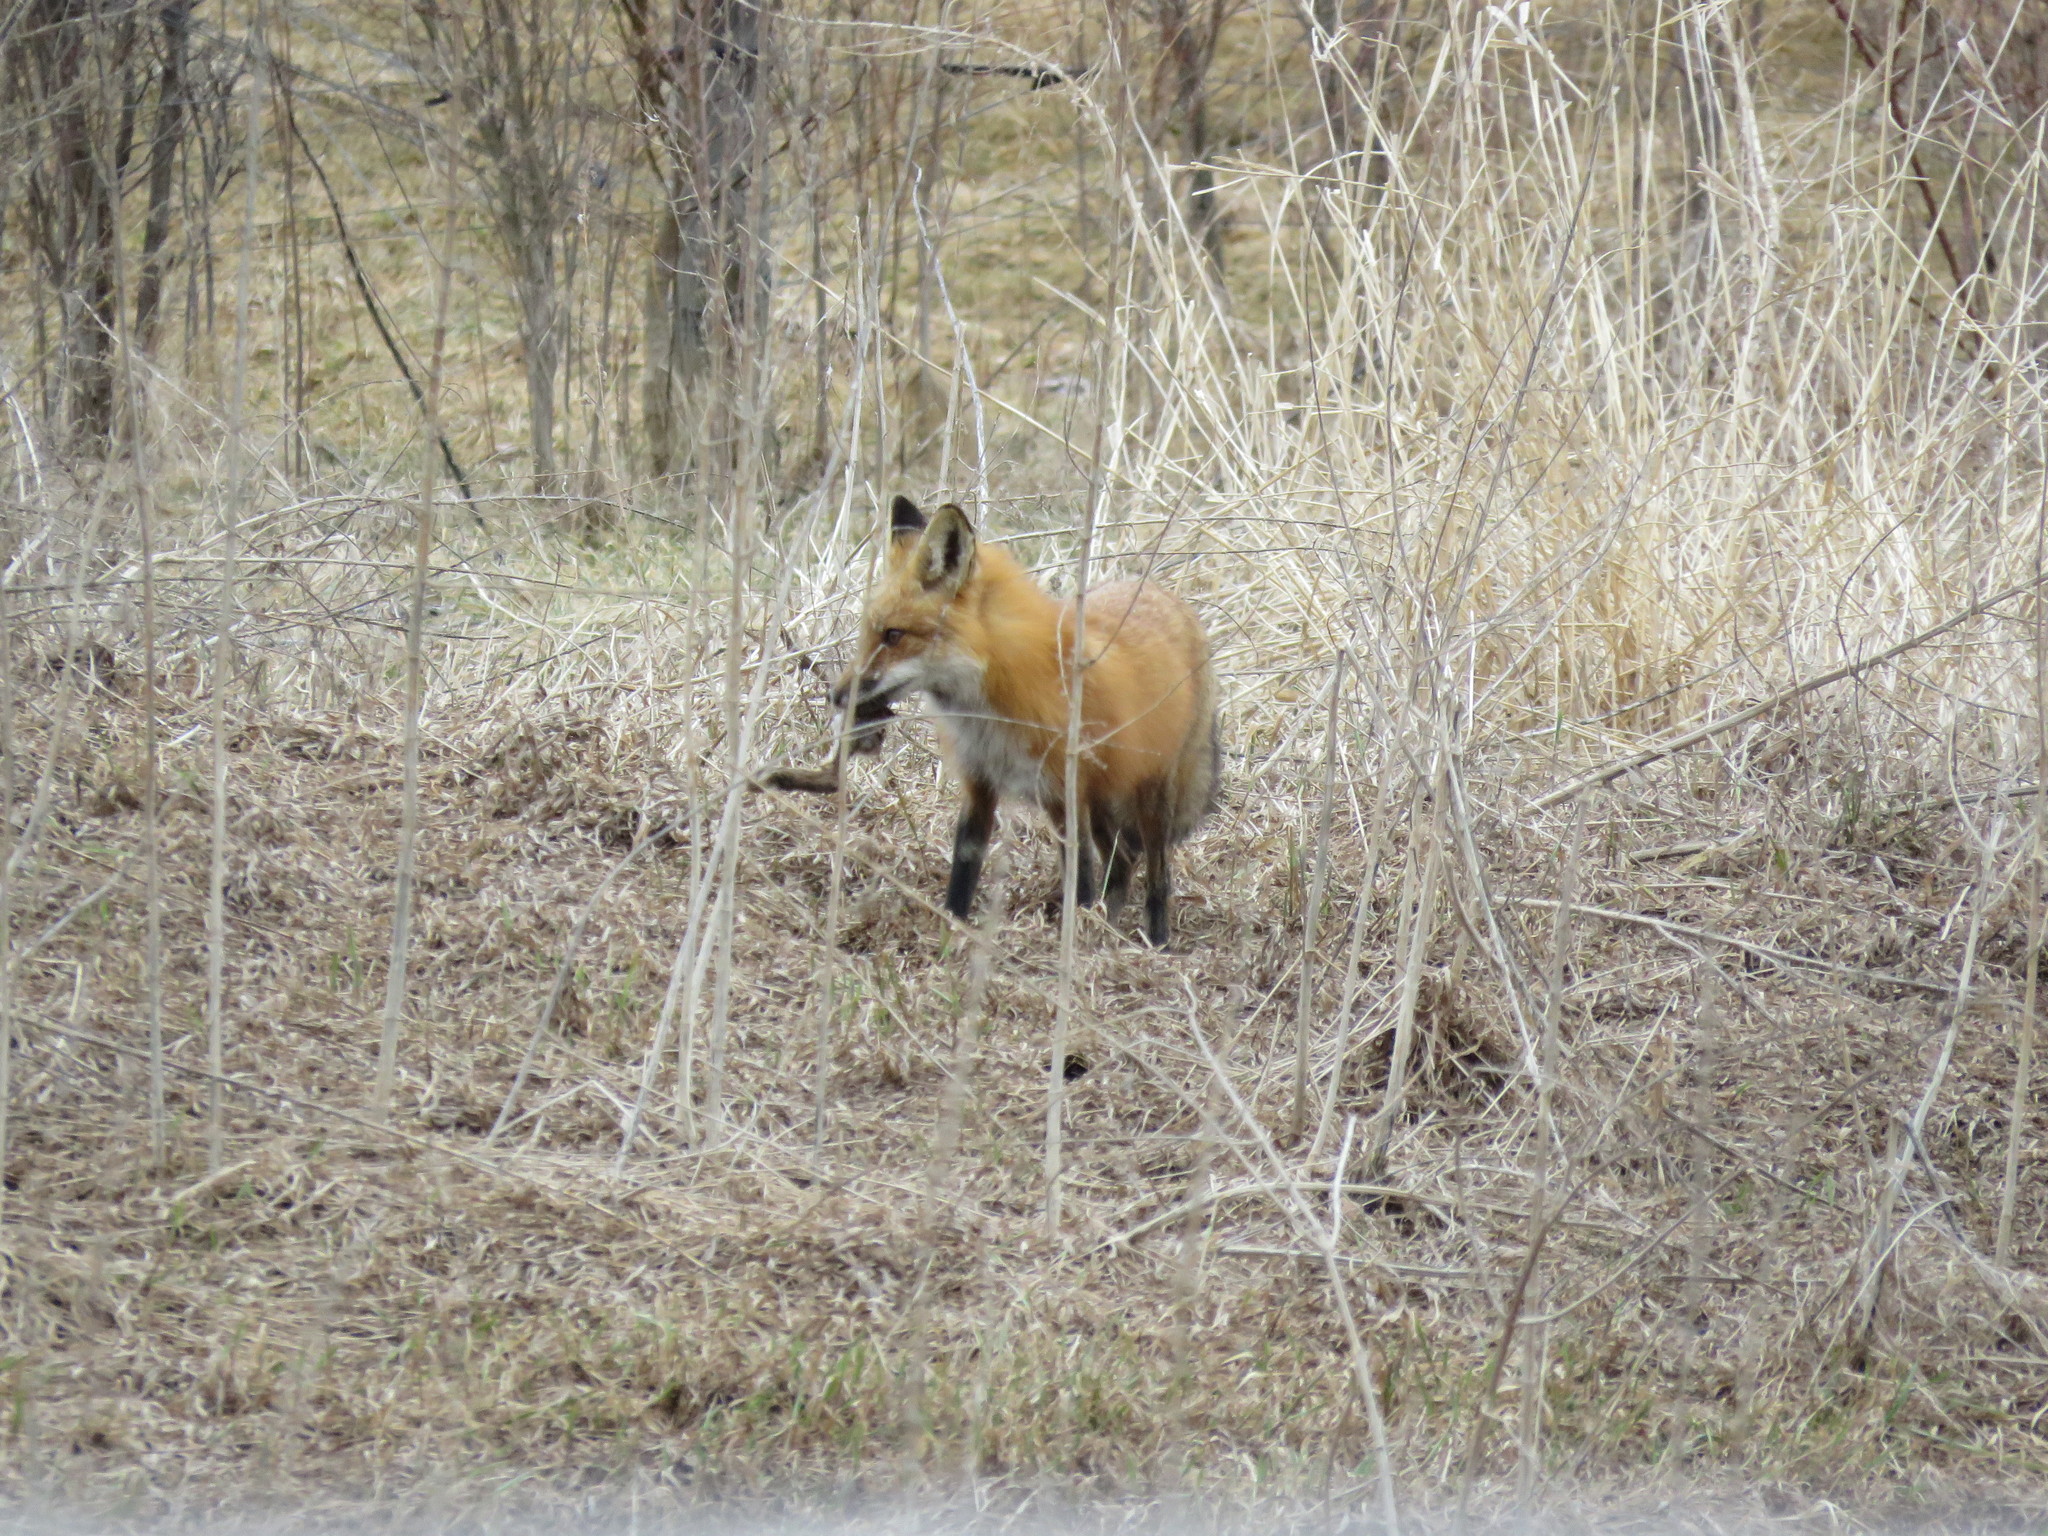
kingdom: Animalia
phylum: Chordata
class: Mammalia
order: Carnivora
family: Canidae
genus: Vulpes
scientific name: Vulpes vulpes
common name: Red fox
